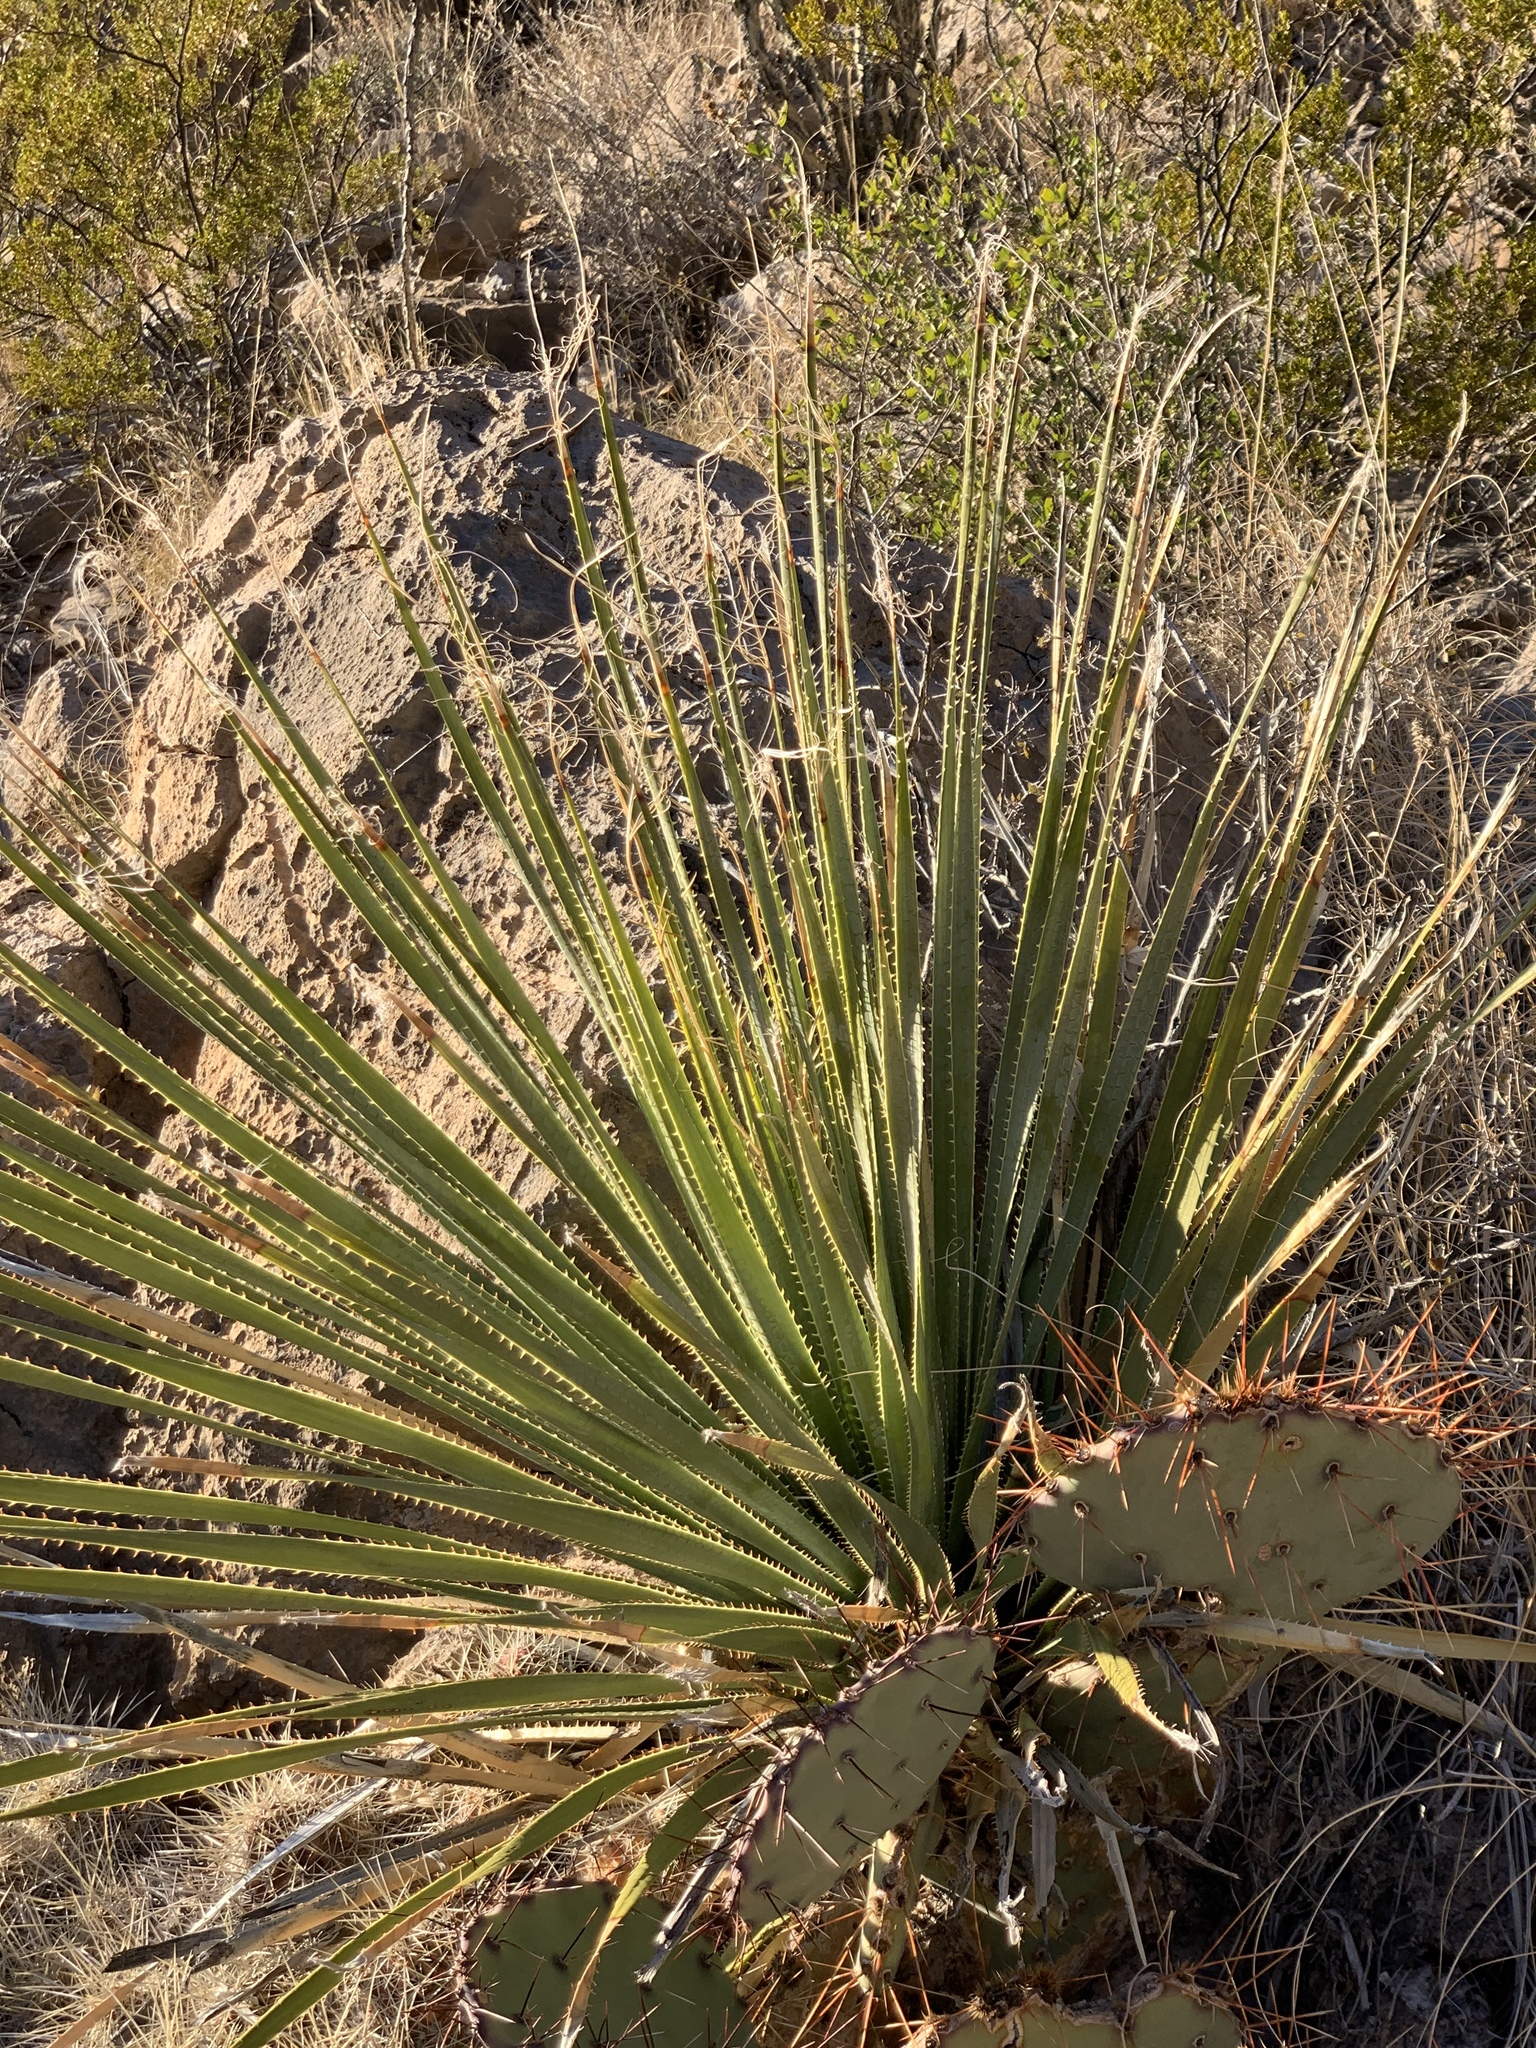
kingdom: Plantae
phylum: Tracheophyta
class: Liliopsida
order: Asparagales
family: Asparagaceae
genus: Dasylirion
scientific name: Dasylirion wheeleri
